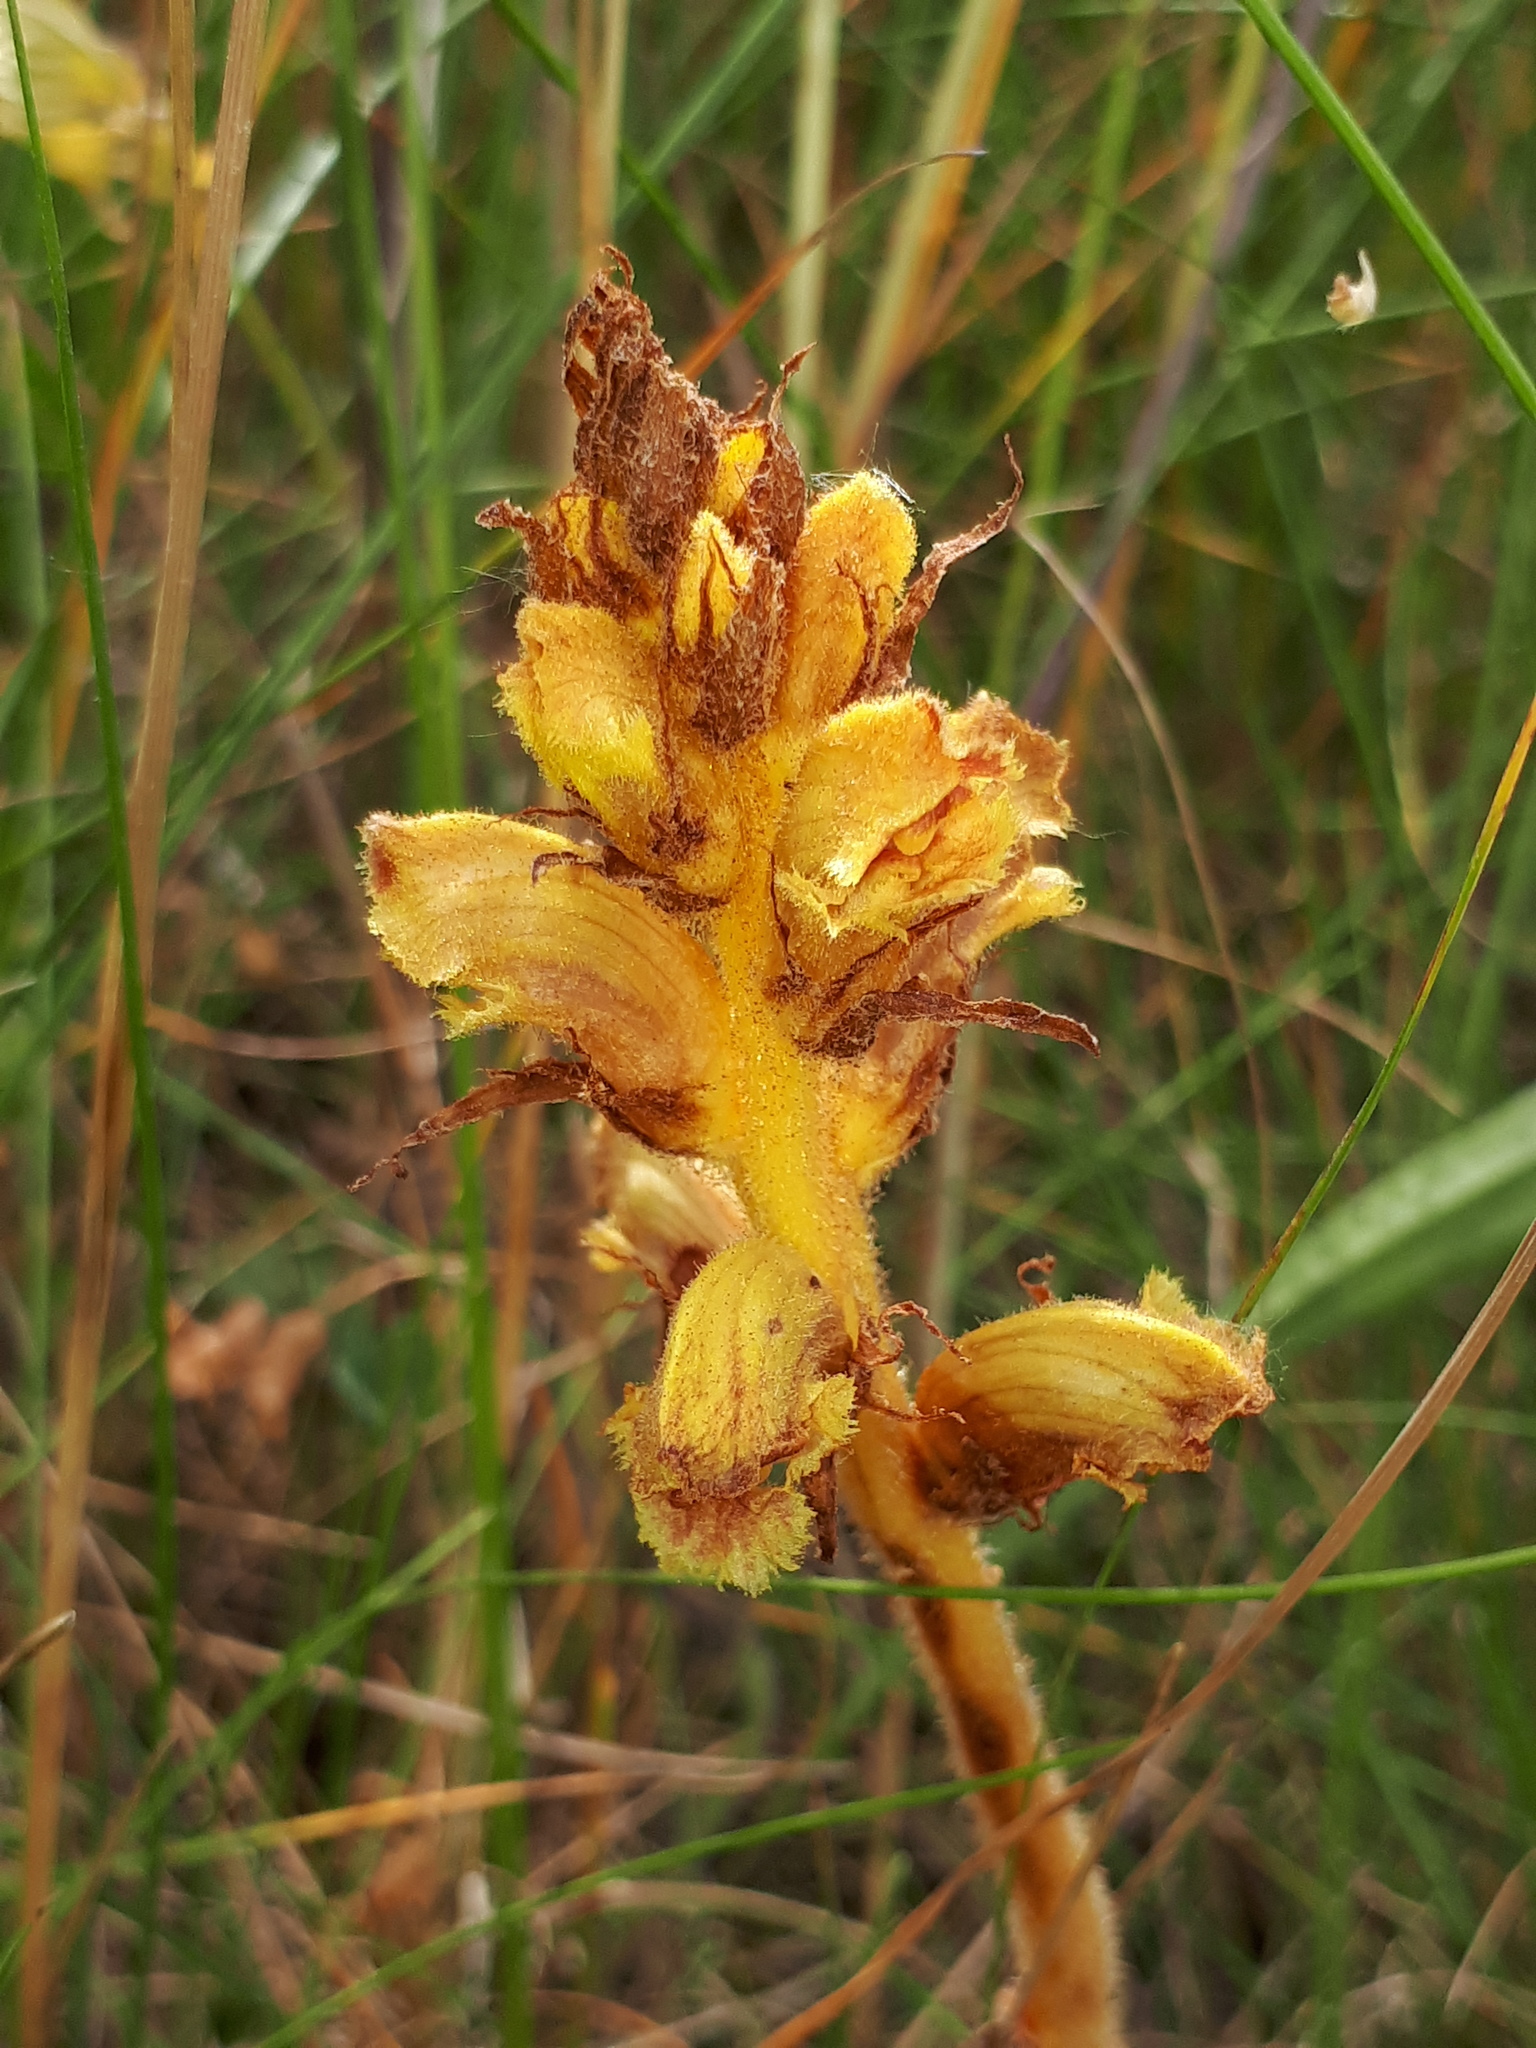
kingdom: Plantae
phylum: Tracheophyta
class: Magnoliopsida
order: Lamiales
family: Orobanchaceae
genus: Orobanche
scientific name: Orobanche gracilis
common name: Slender broomrape
